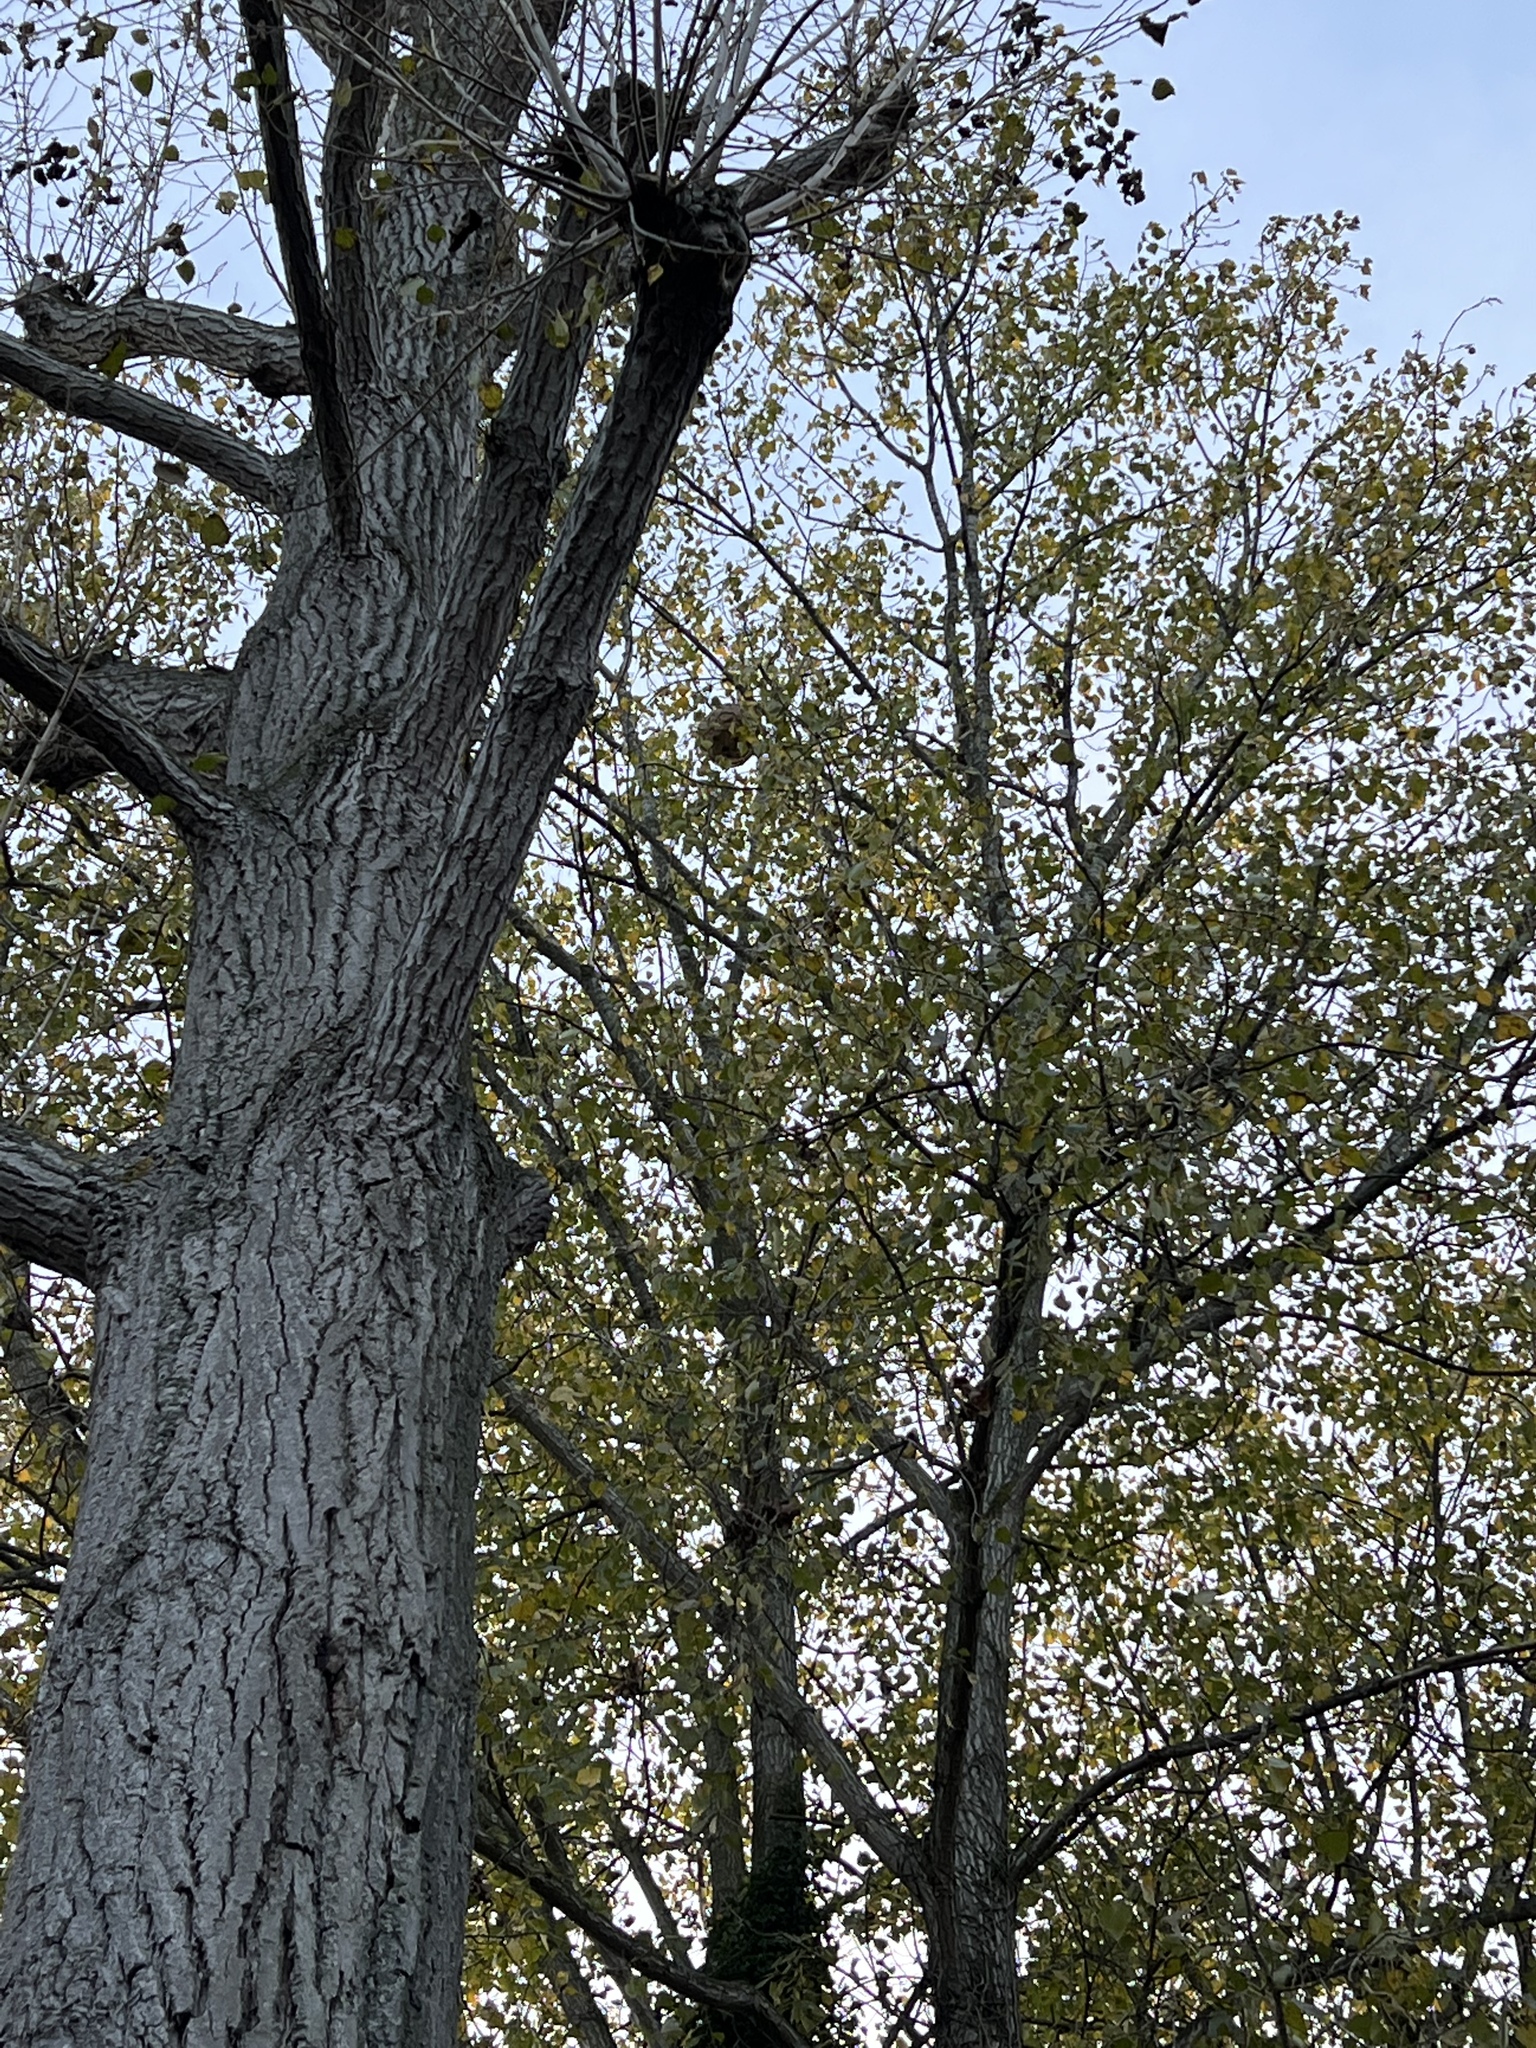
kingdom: Animalia
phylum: Arthropoda
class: Insecta
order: Hymenoptera
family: Vespidae
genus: Vespa
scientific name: Vespa velutina
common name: Asian hornet
